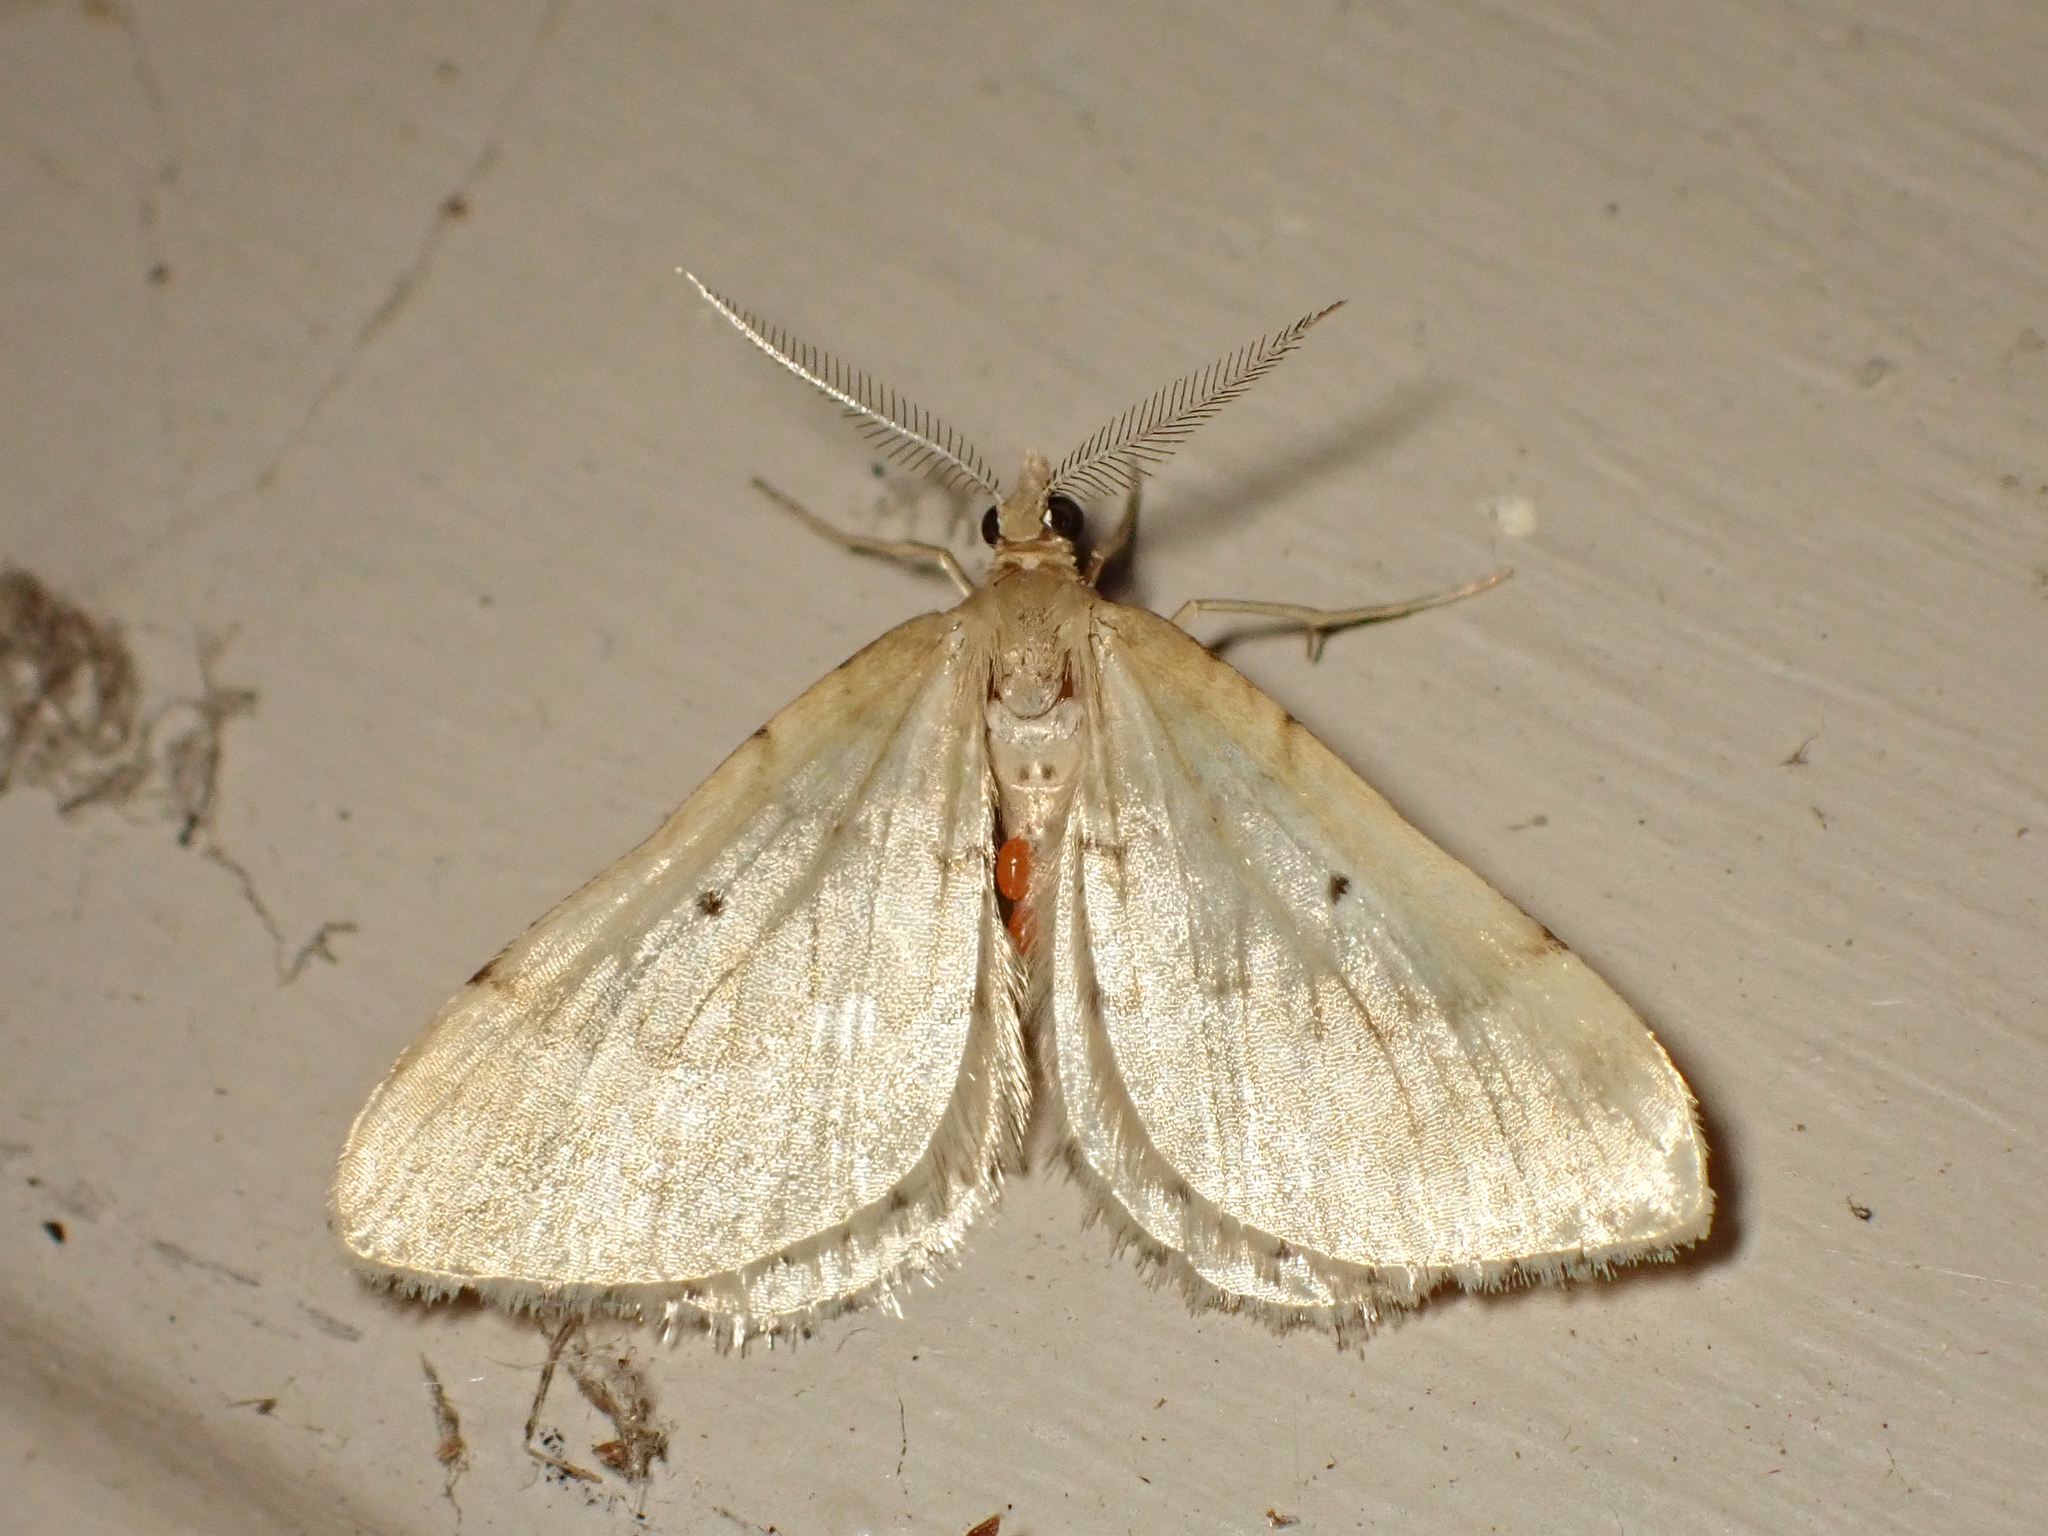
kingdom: Animalia
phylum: Arthropoda
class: Insecta
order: Lepidoptera
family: Geometridae
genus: Asaphodes
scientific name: Asaphodes oraria
